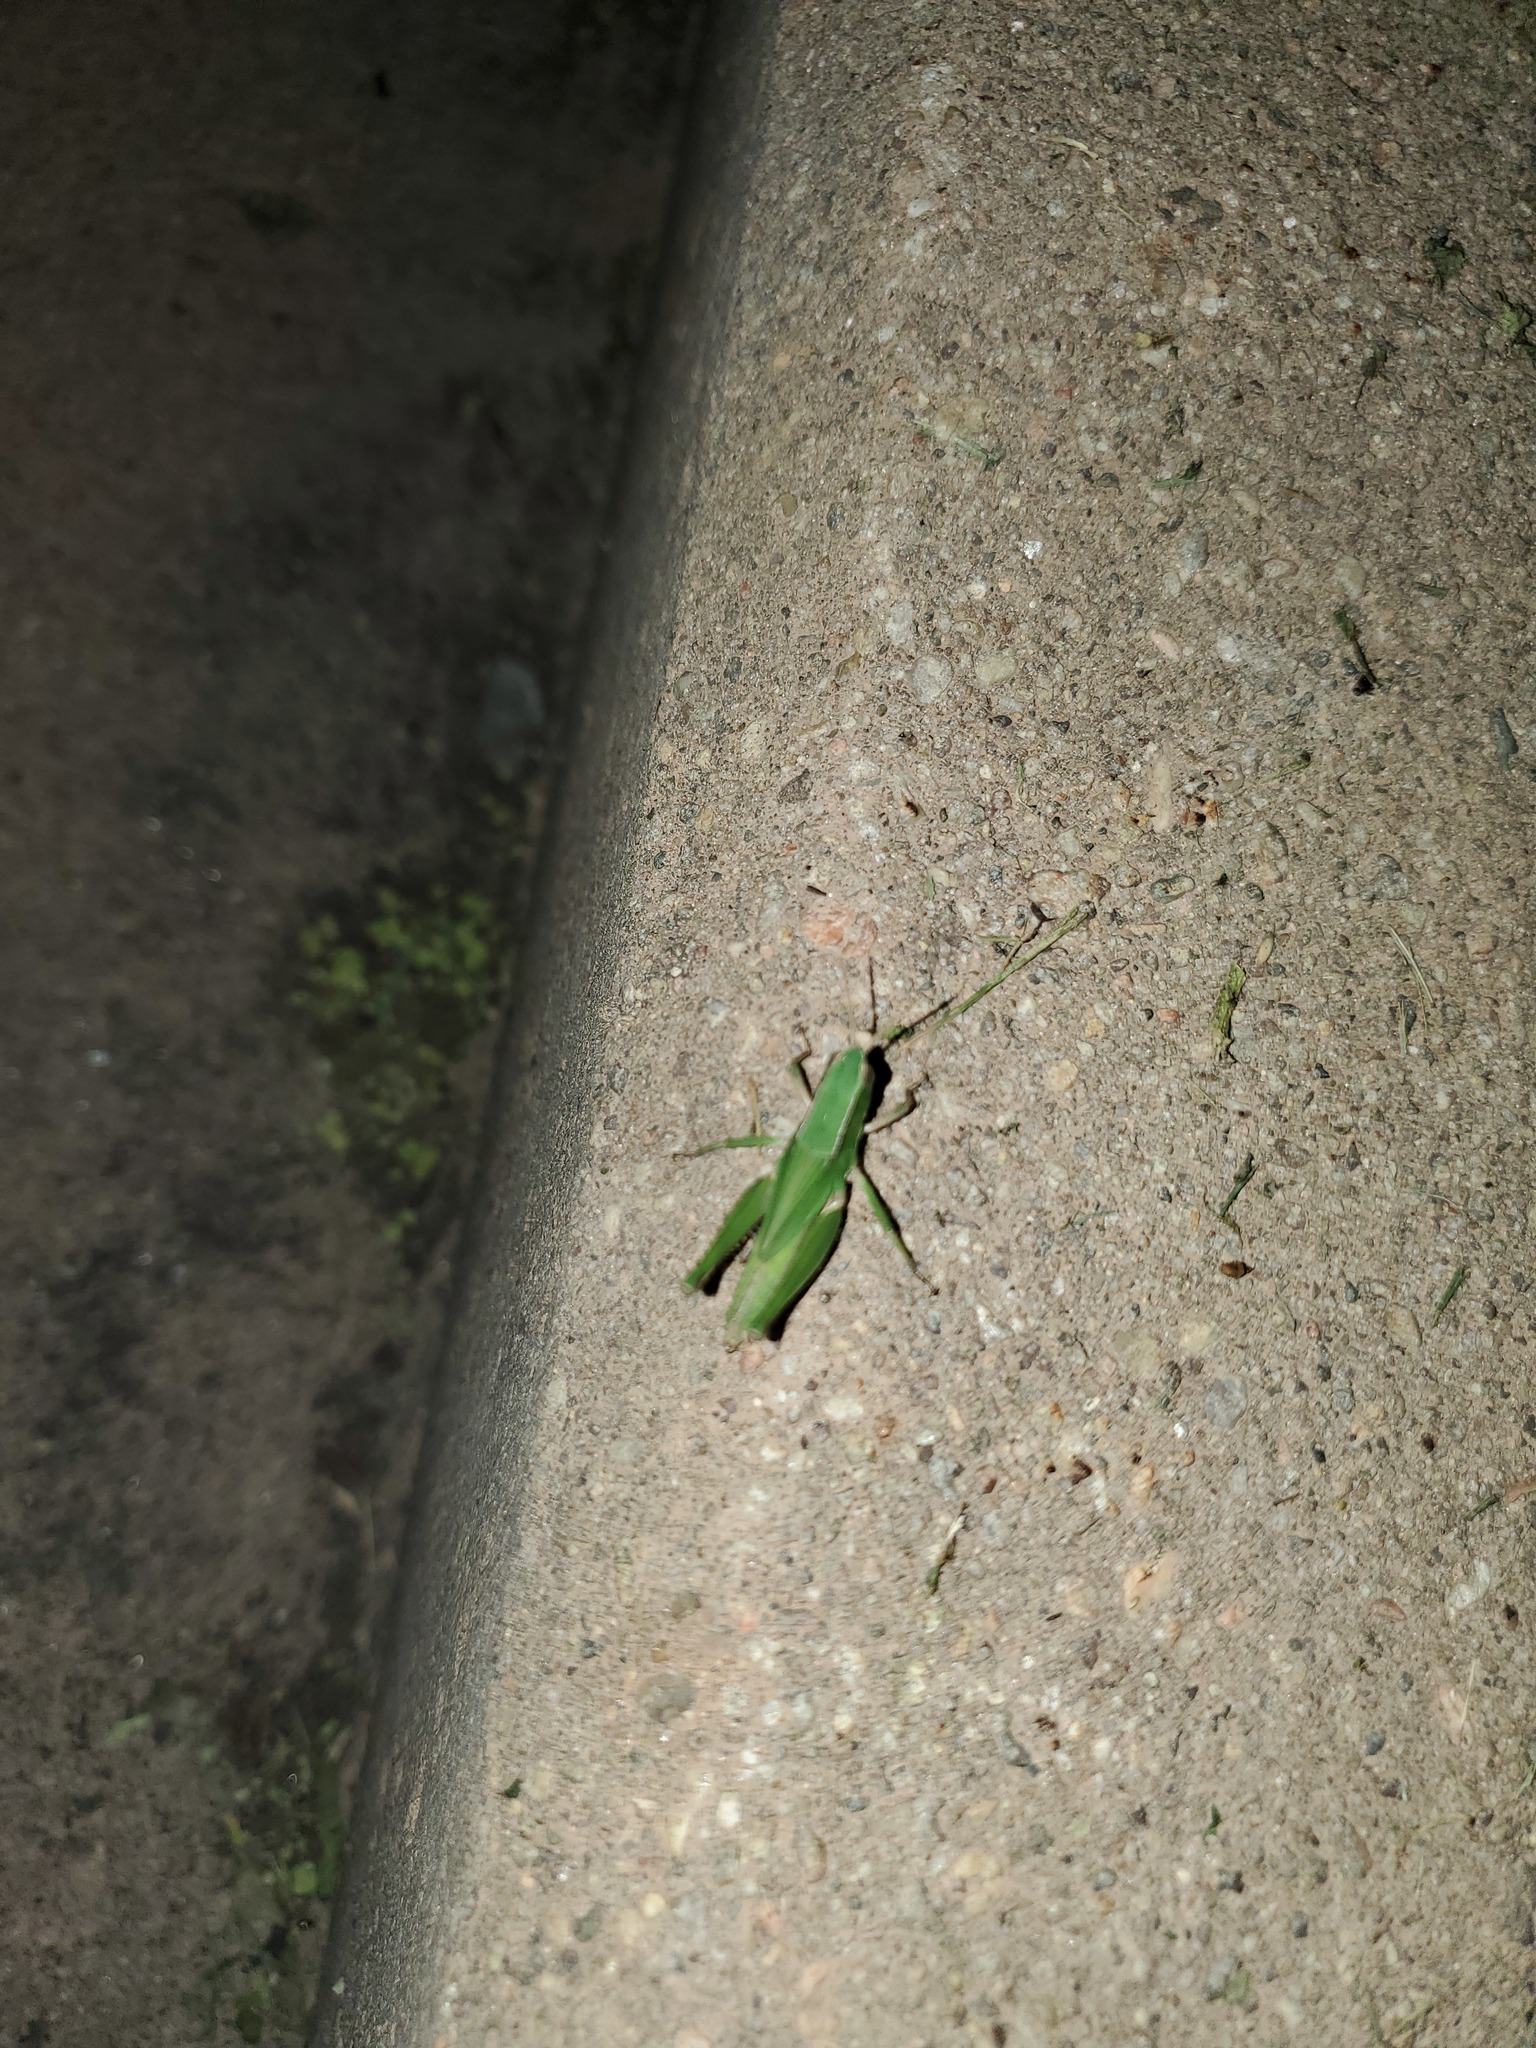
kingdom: Animalia
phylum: Arthropoda
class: Insecta
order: Orthoptera
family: Acrididae
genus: Dichromorpha
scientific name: Dichromorpha viridis
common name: Short-winged green grasshopper
